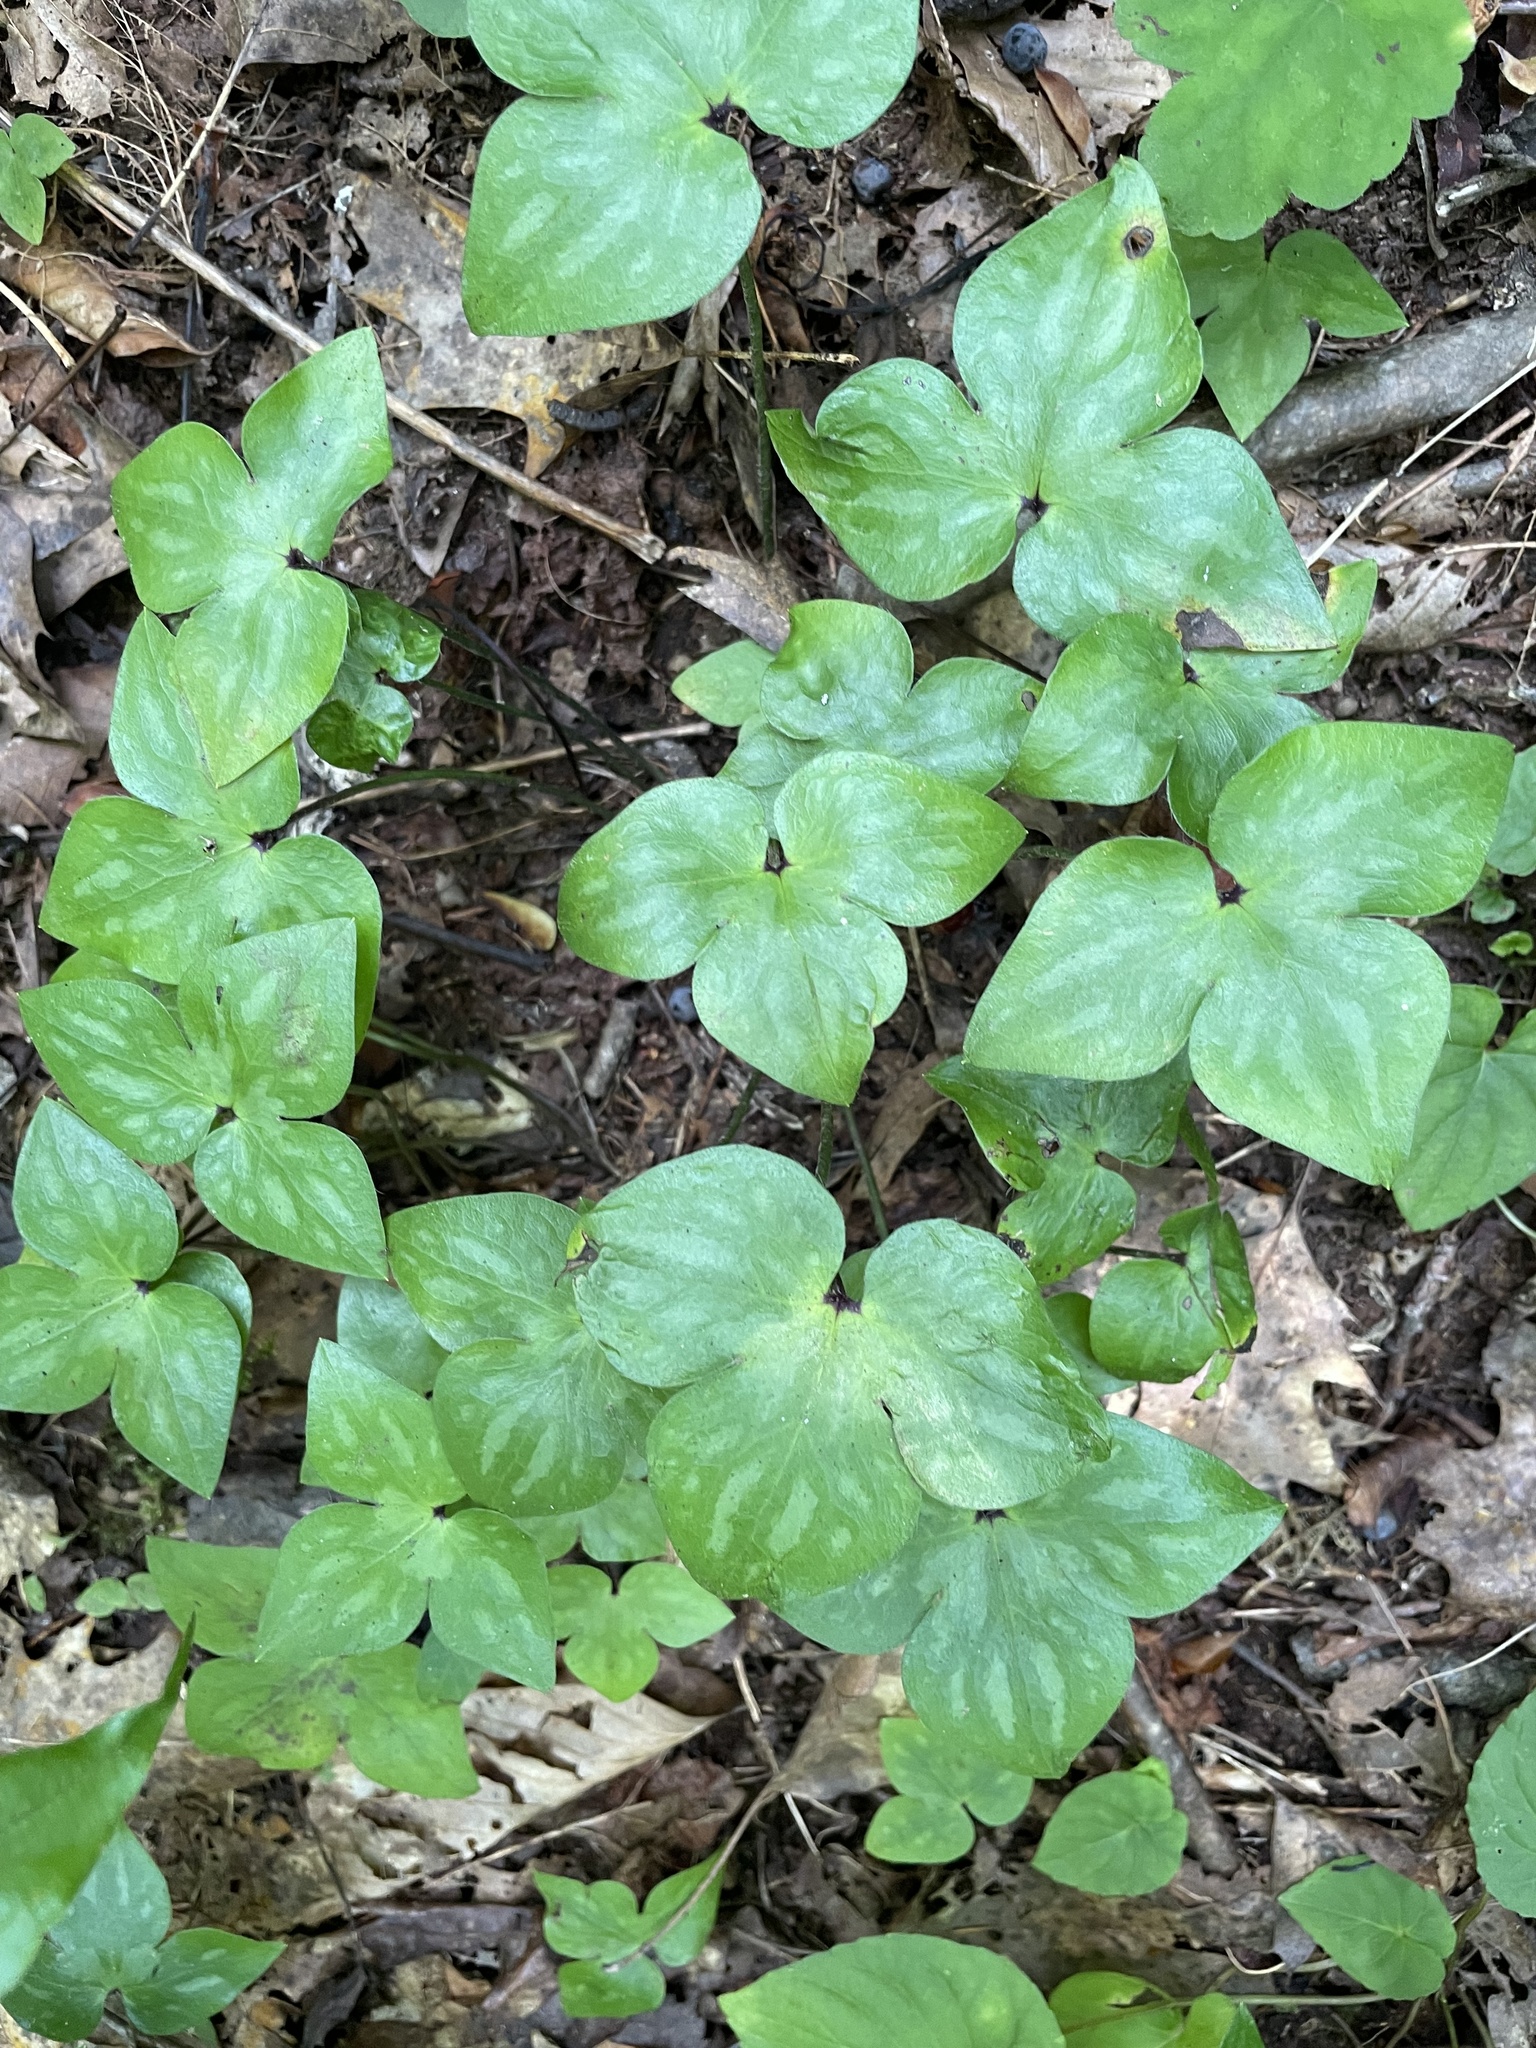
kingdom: Plantae
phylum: Tracheophyta
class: Magnoliopsida
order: Ranunculales
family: Ranunculaceae
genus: Hepatica
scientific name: Hepatica acutiloba
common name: Sharp-lobed hepatica
